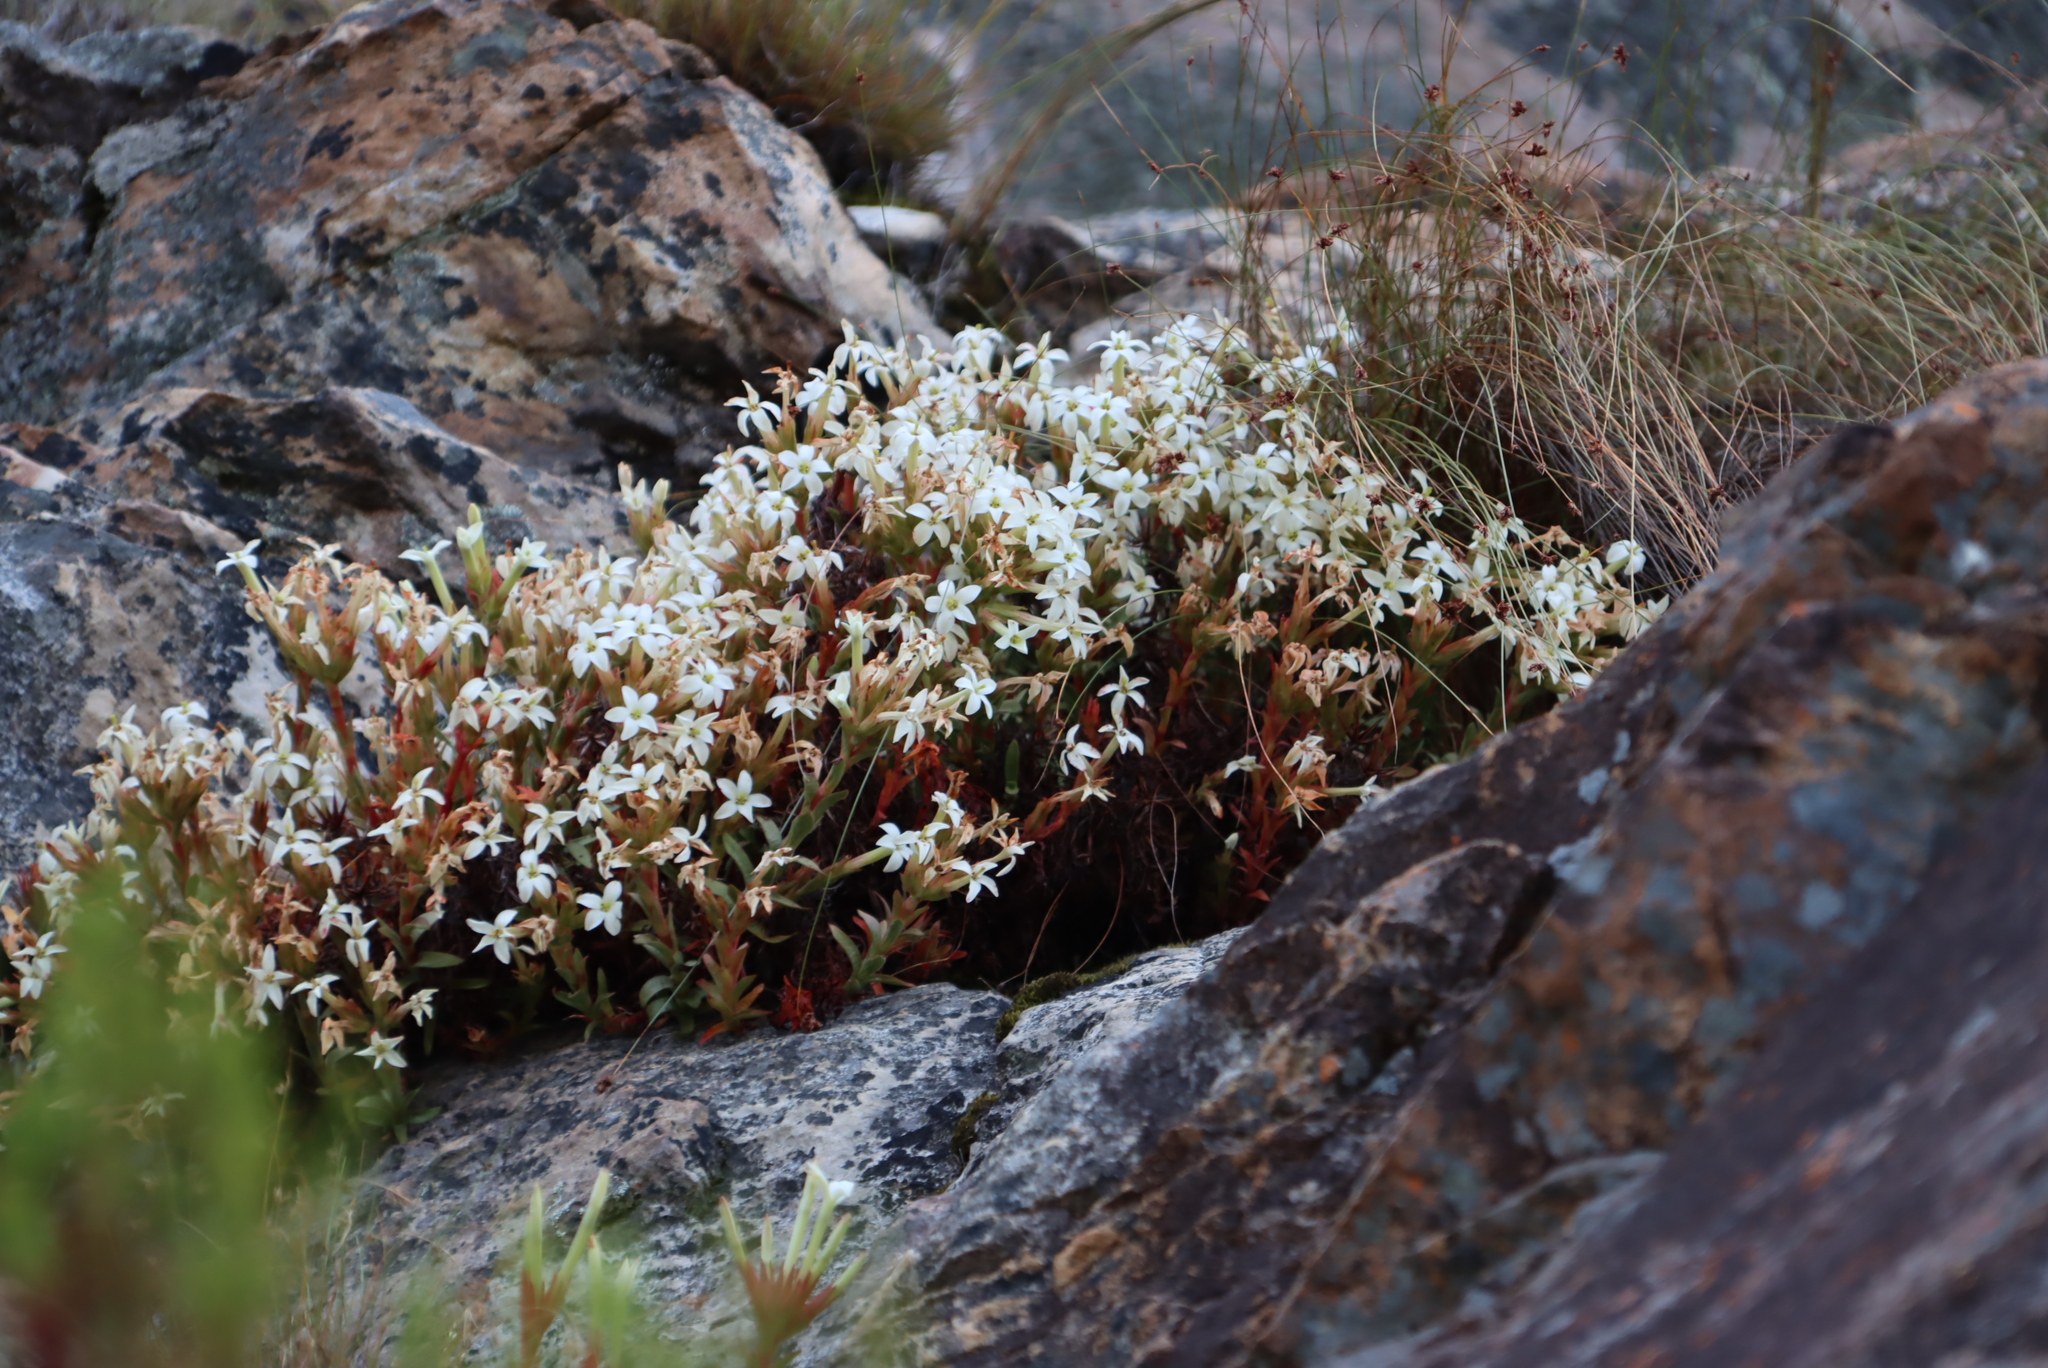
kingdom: Plantae
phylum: Tracheophyta
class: Magnoliopsida
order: Saxifragales
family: Crassulaceae
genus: Crassula
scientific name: Crassula obtusa
